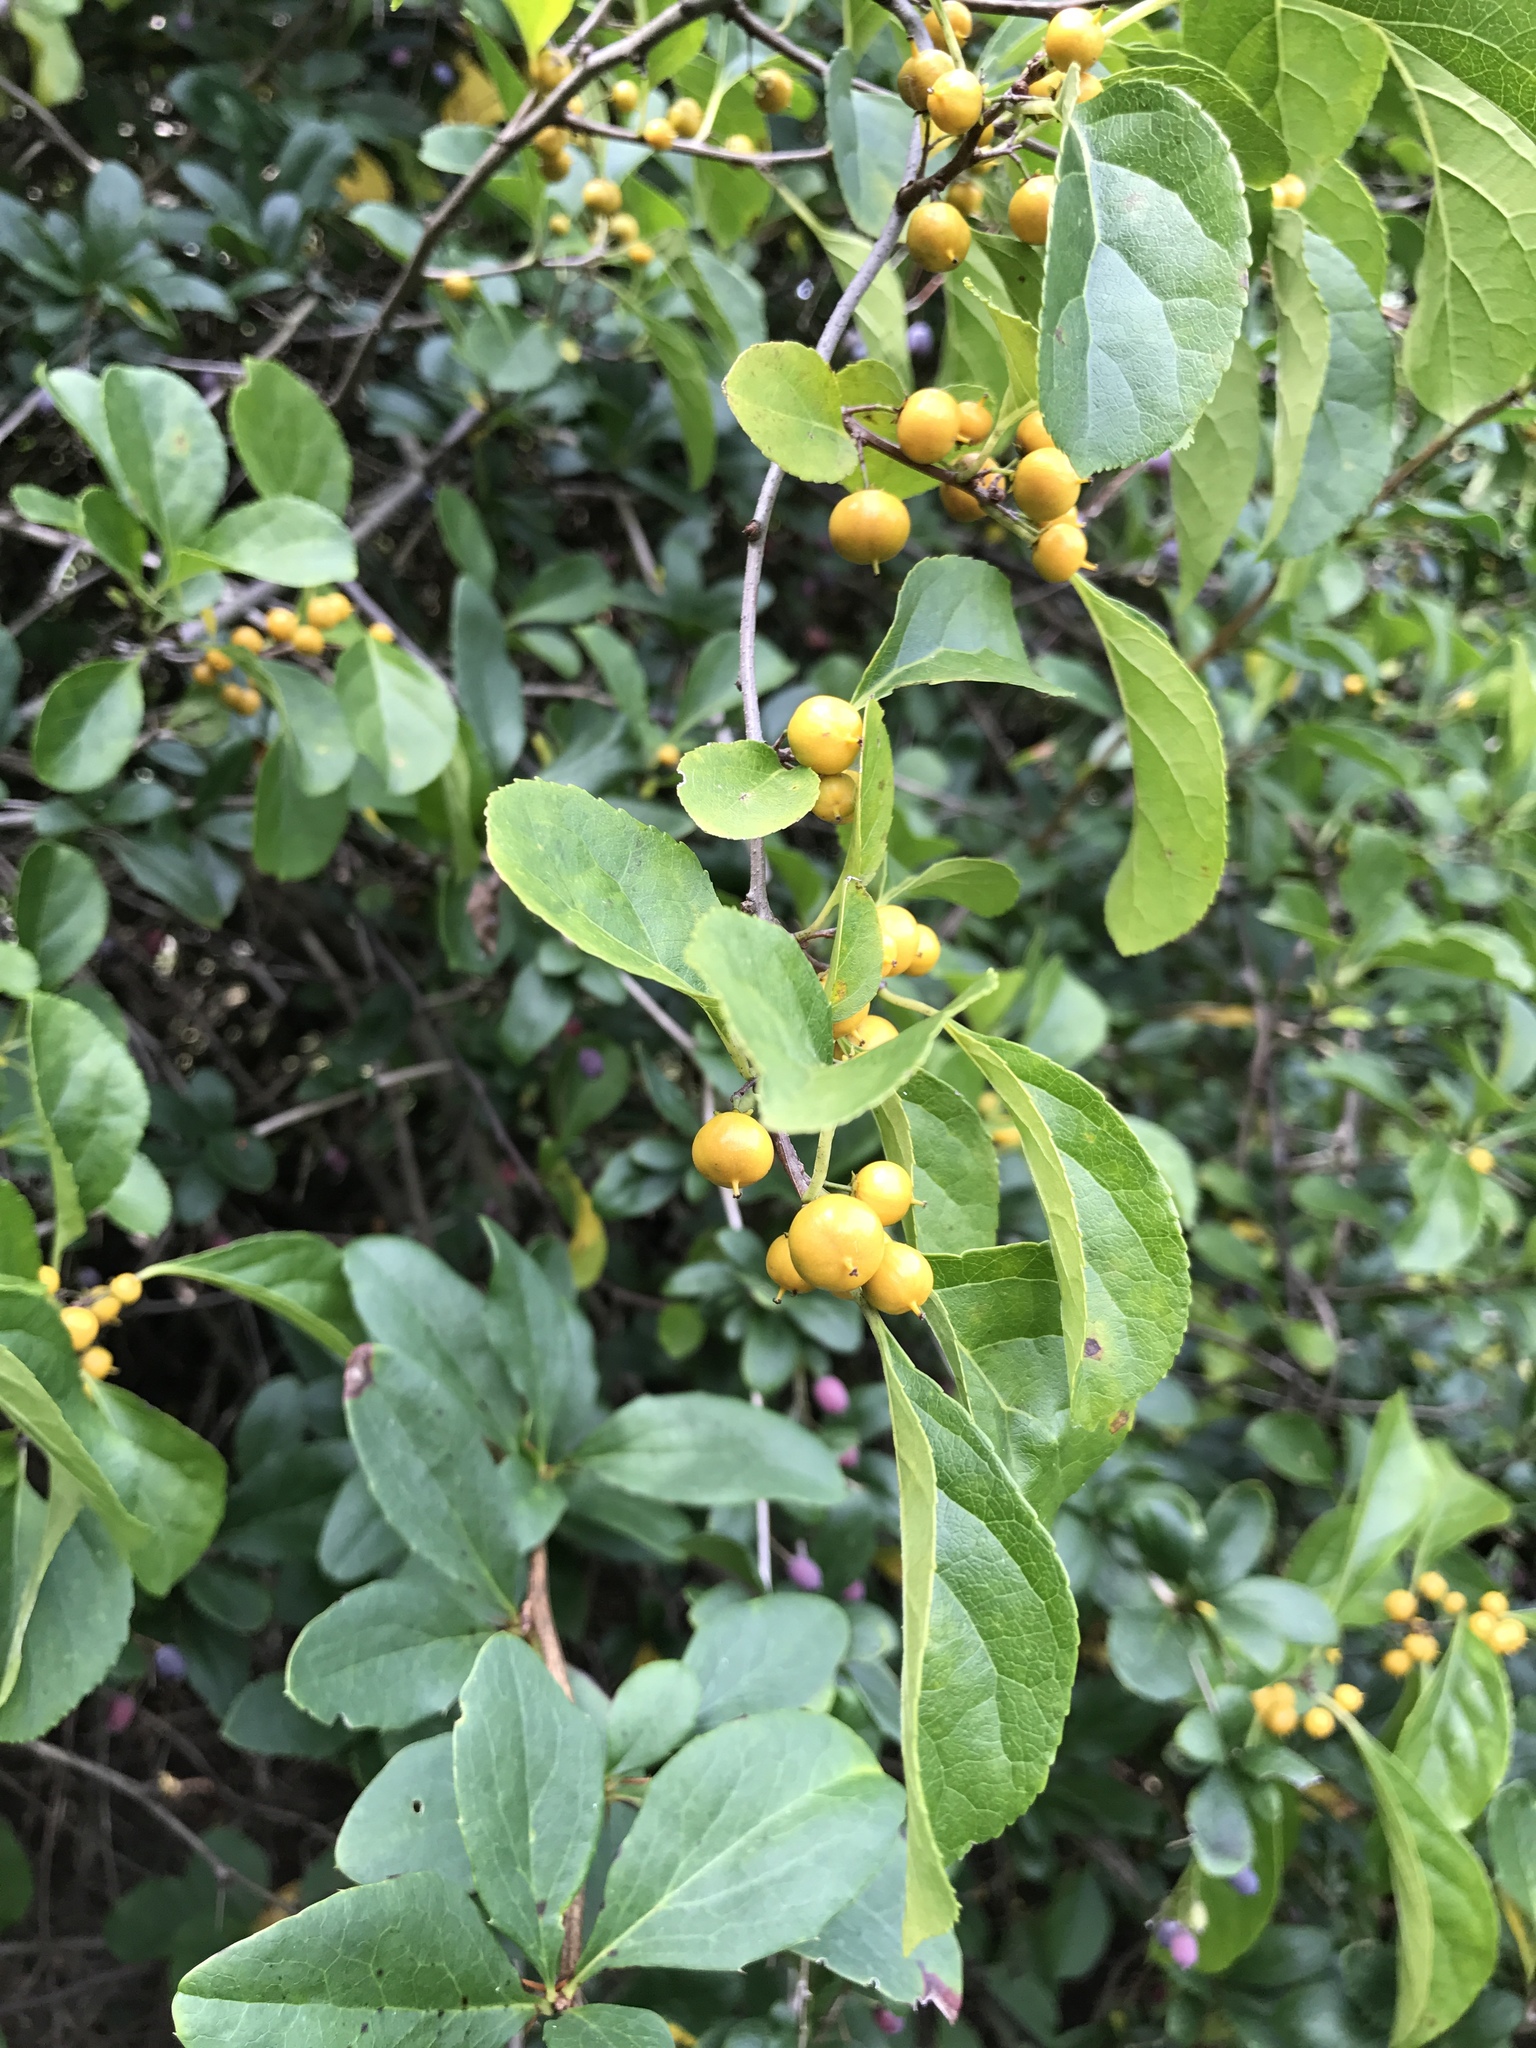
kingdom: Plantae
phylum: Tracheophyta
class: Magnoliopsida
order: Celastrales
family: Celastraceae
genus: Celastrus
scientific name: Celastrus orbiculatus
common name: Oriental bittersweet
